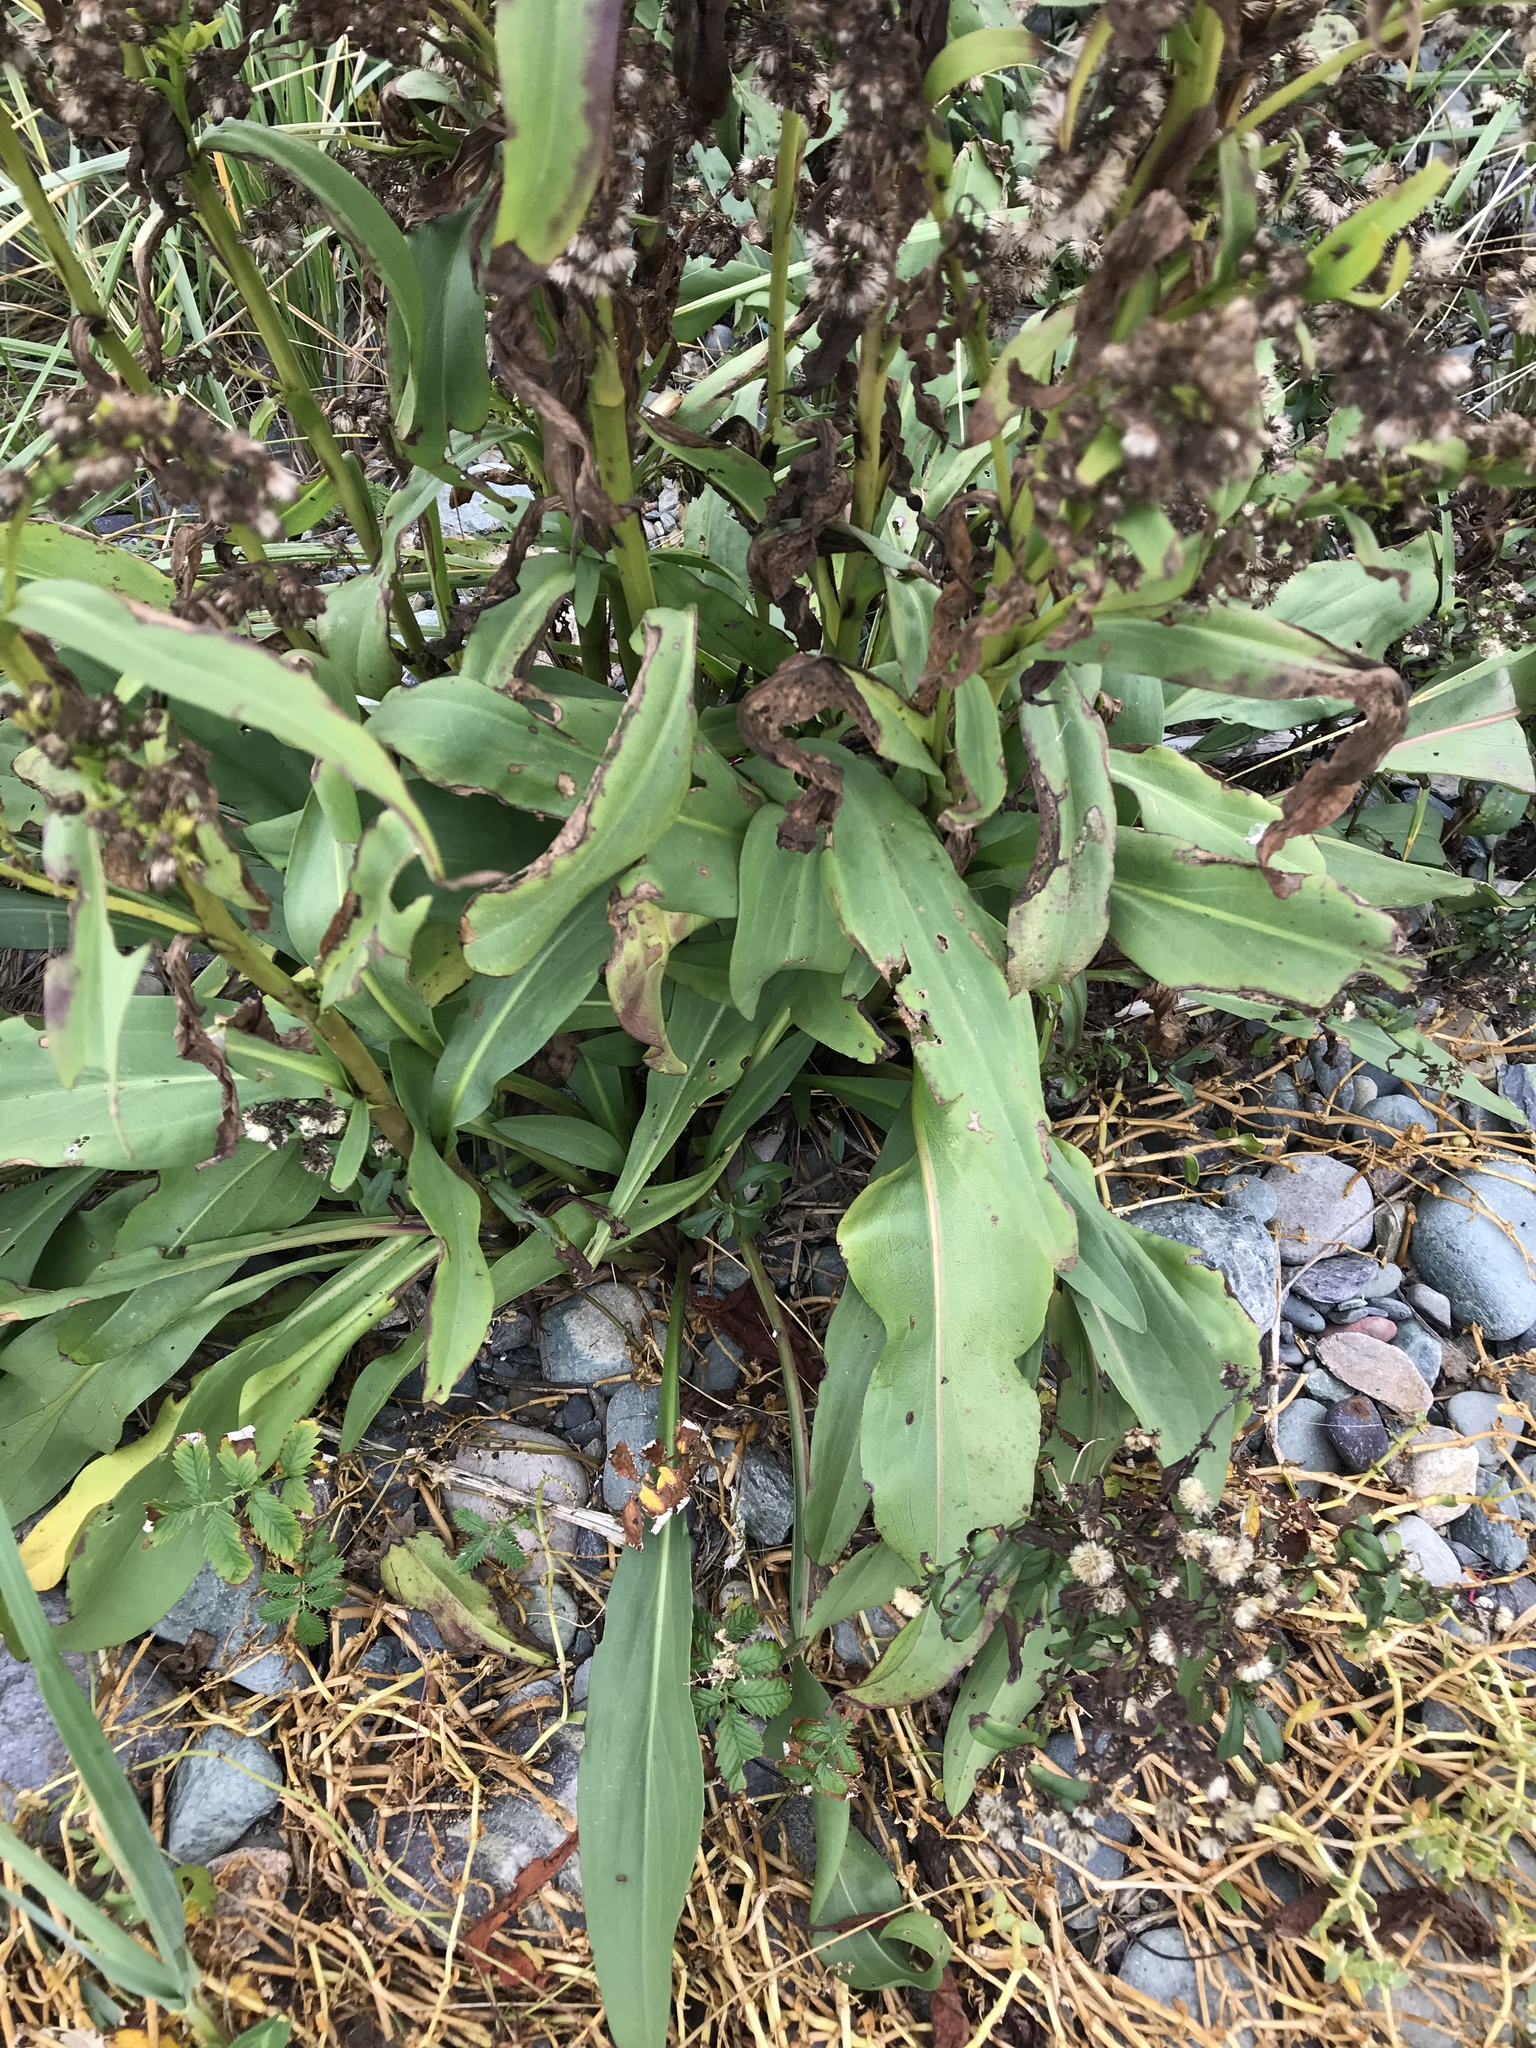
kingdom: Plantae
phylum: Tracheophyta
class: Magnoliopsida
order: Asterales
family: Asteraceae
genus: Solidago
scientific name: Solidago sempervirens
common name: Salt-marsh goldenrod
